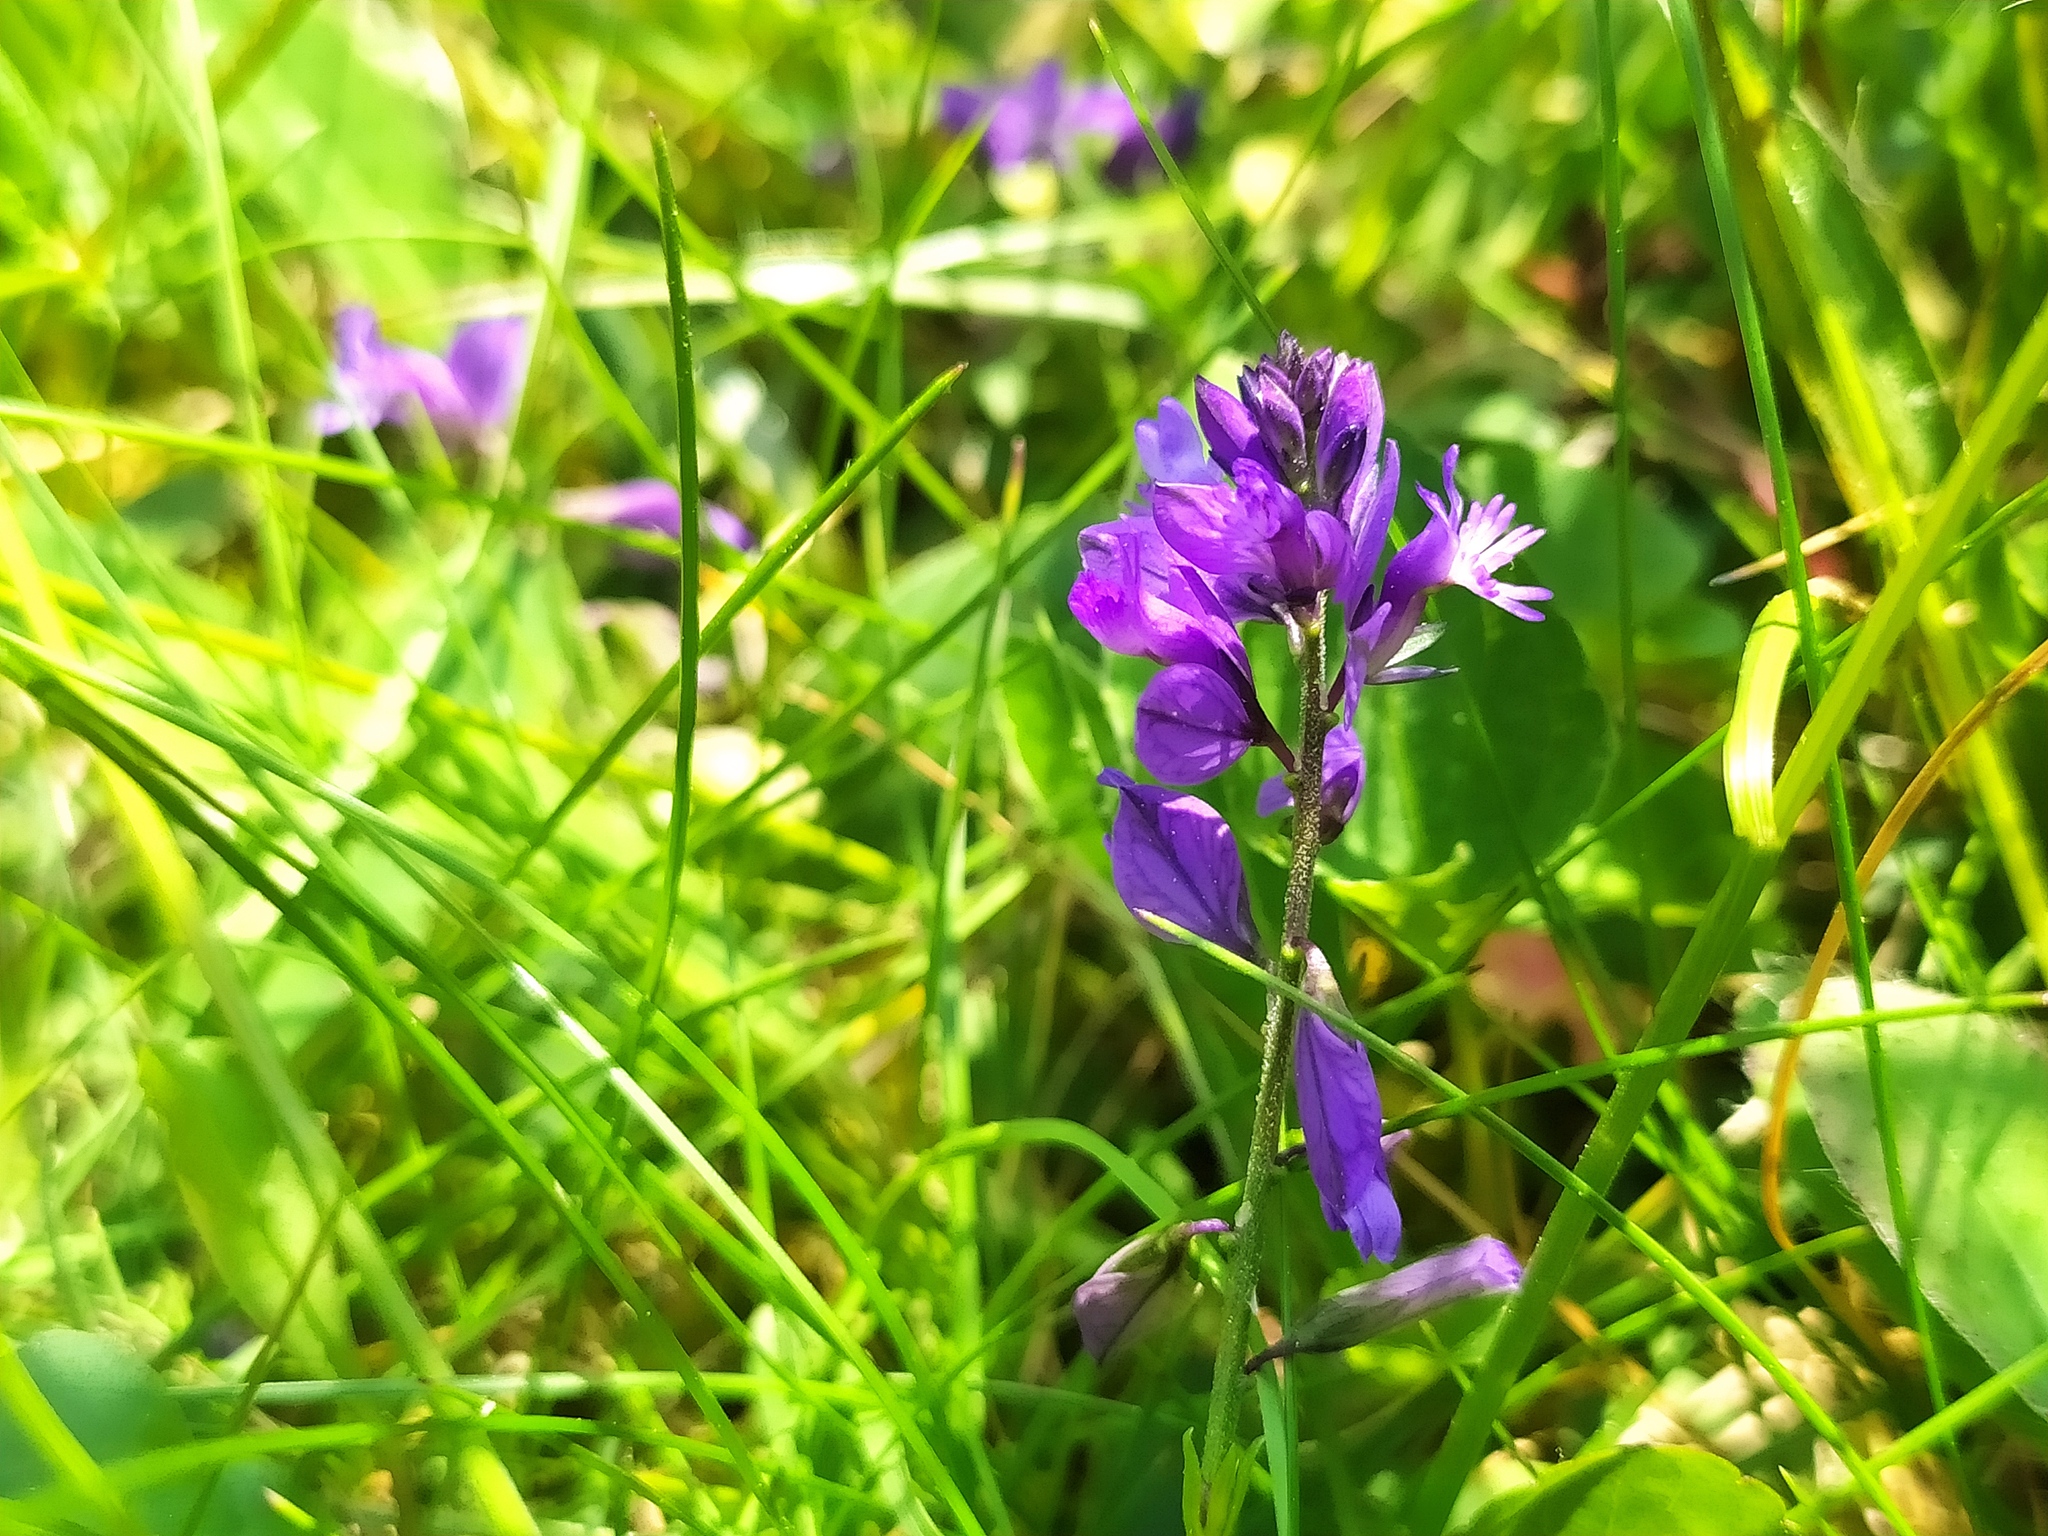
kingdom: Plantae
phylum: Tracheophyta
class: Magnoliopsida
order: Fabales
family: Polygalaceae
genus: Polygala
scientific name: Polygala vulgaris
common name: Common milkwort
